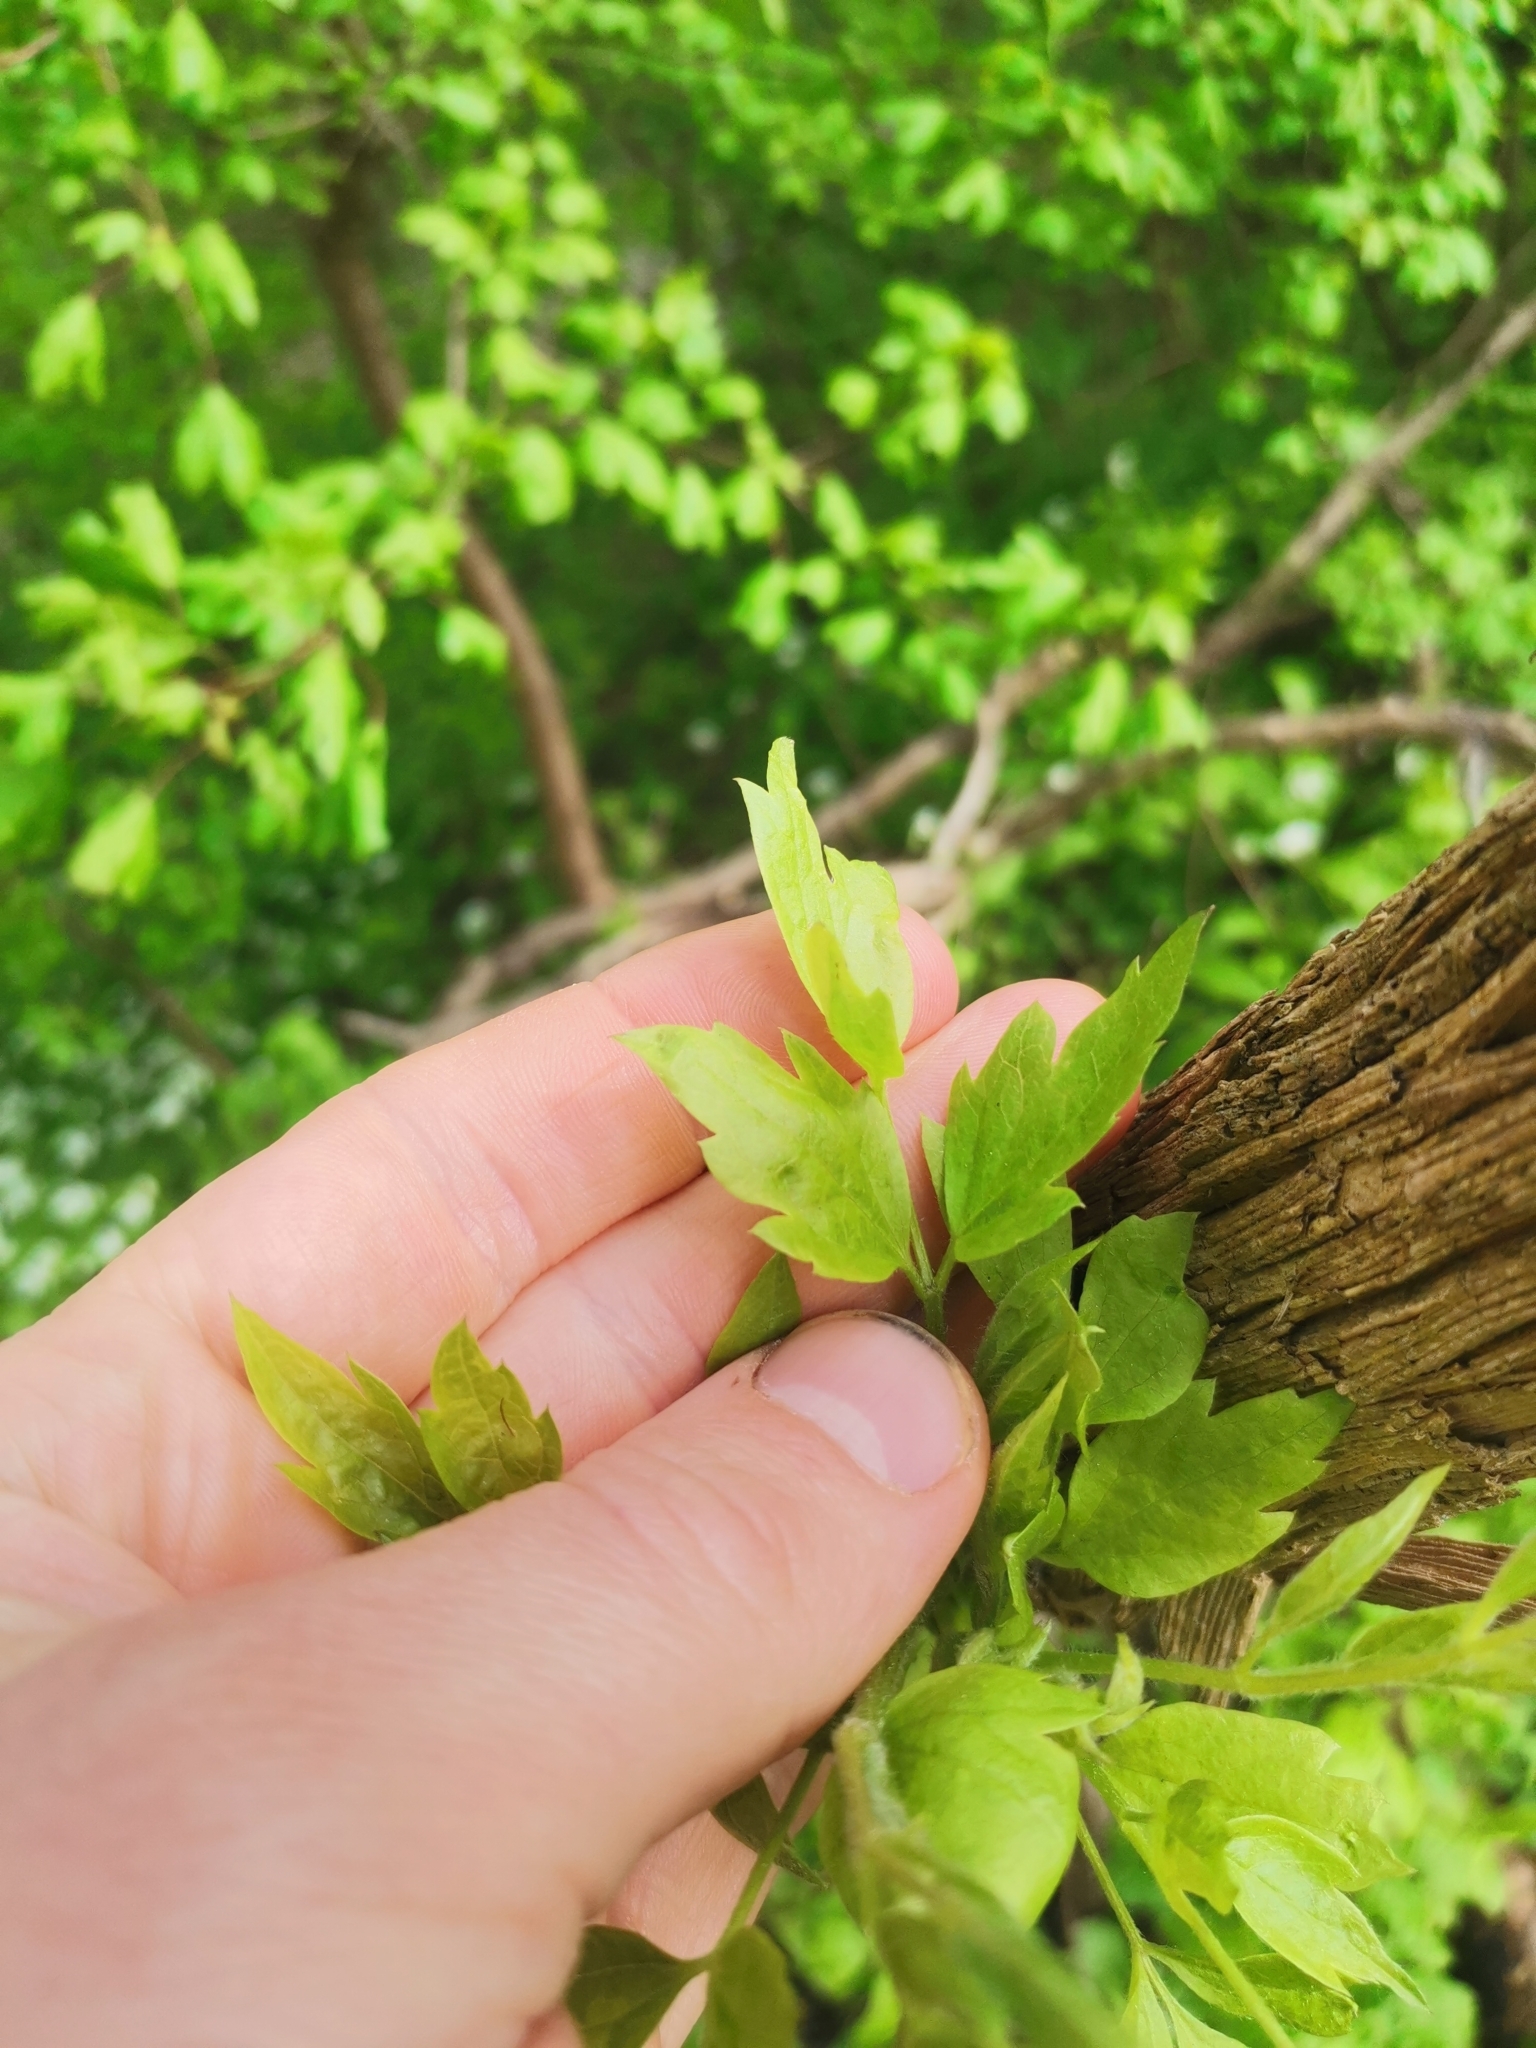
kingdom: Plantae
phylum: Tracheophyta
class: Magnoliopsida
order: Ranunculales
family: Ranunculaceae
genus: Clematis
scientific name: Clematis vitalba
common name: Evergreen clematis
